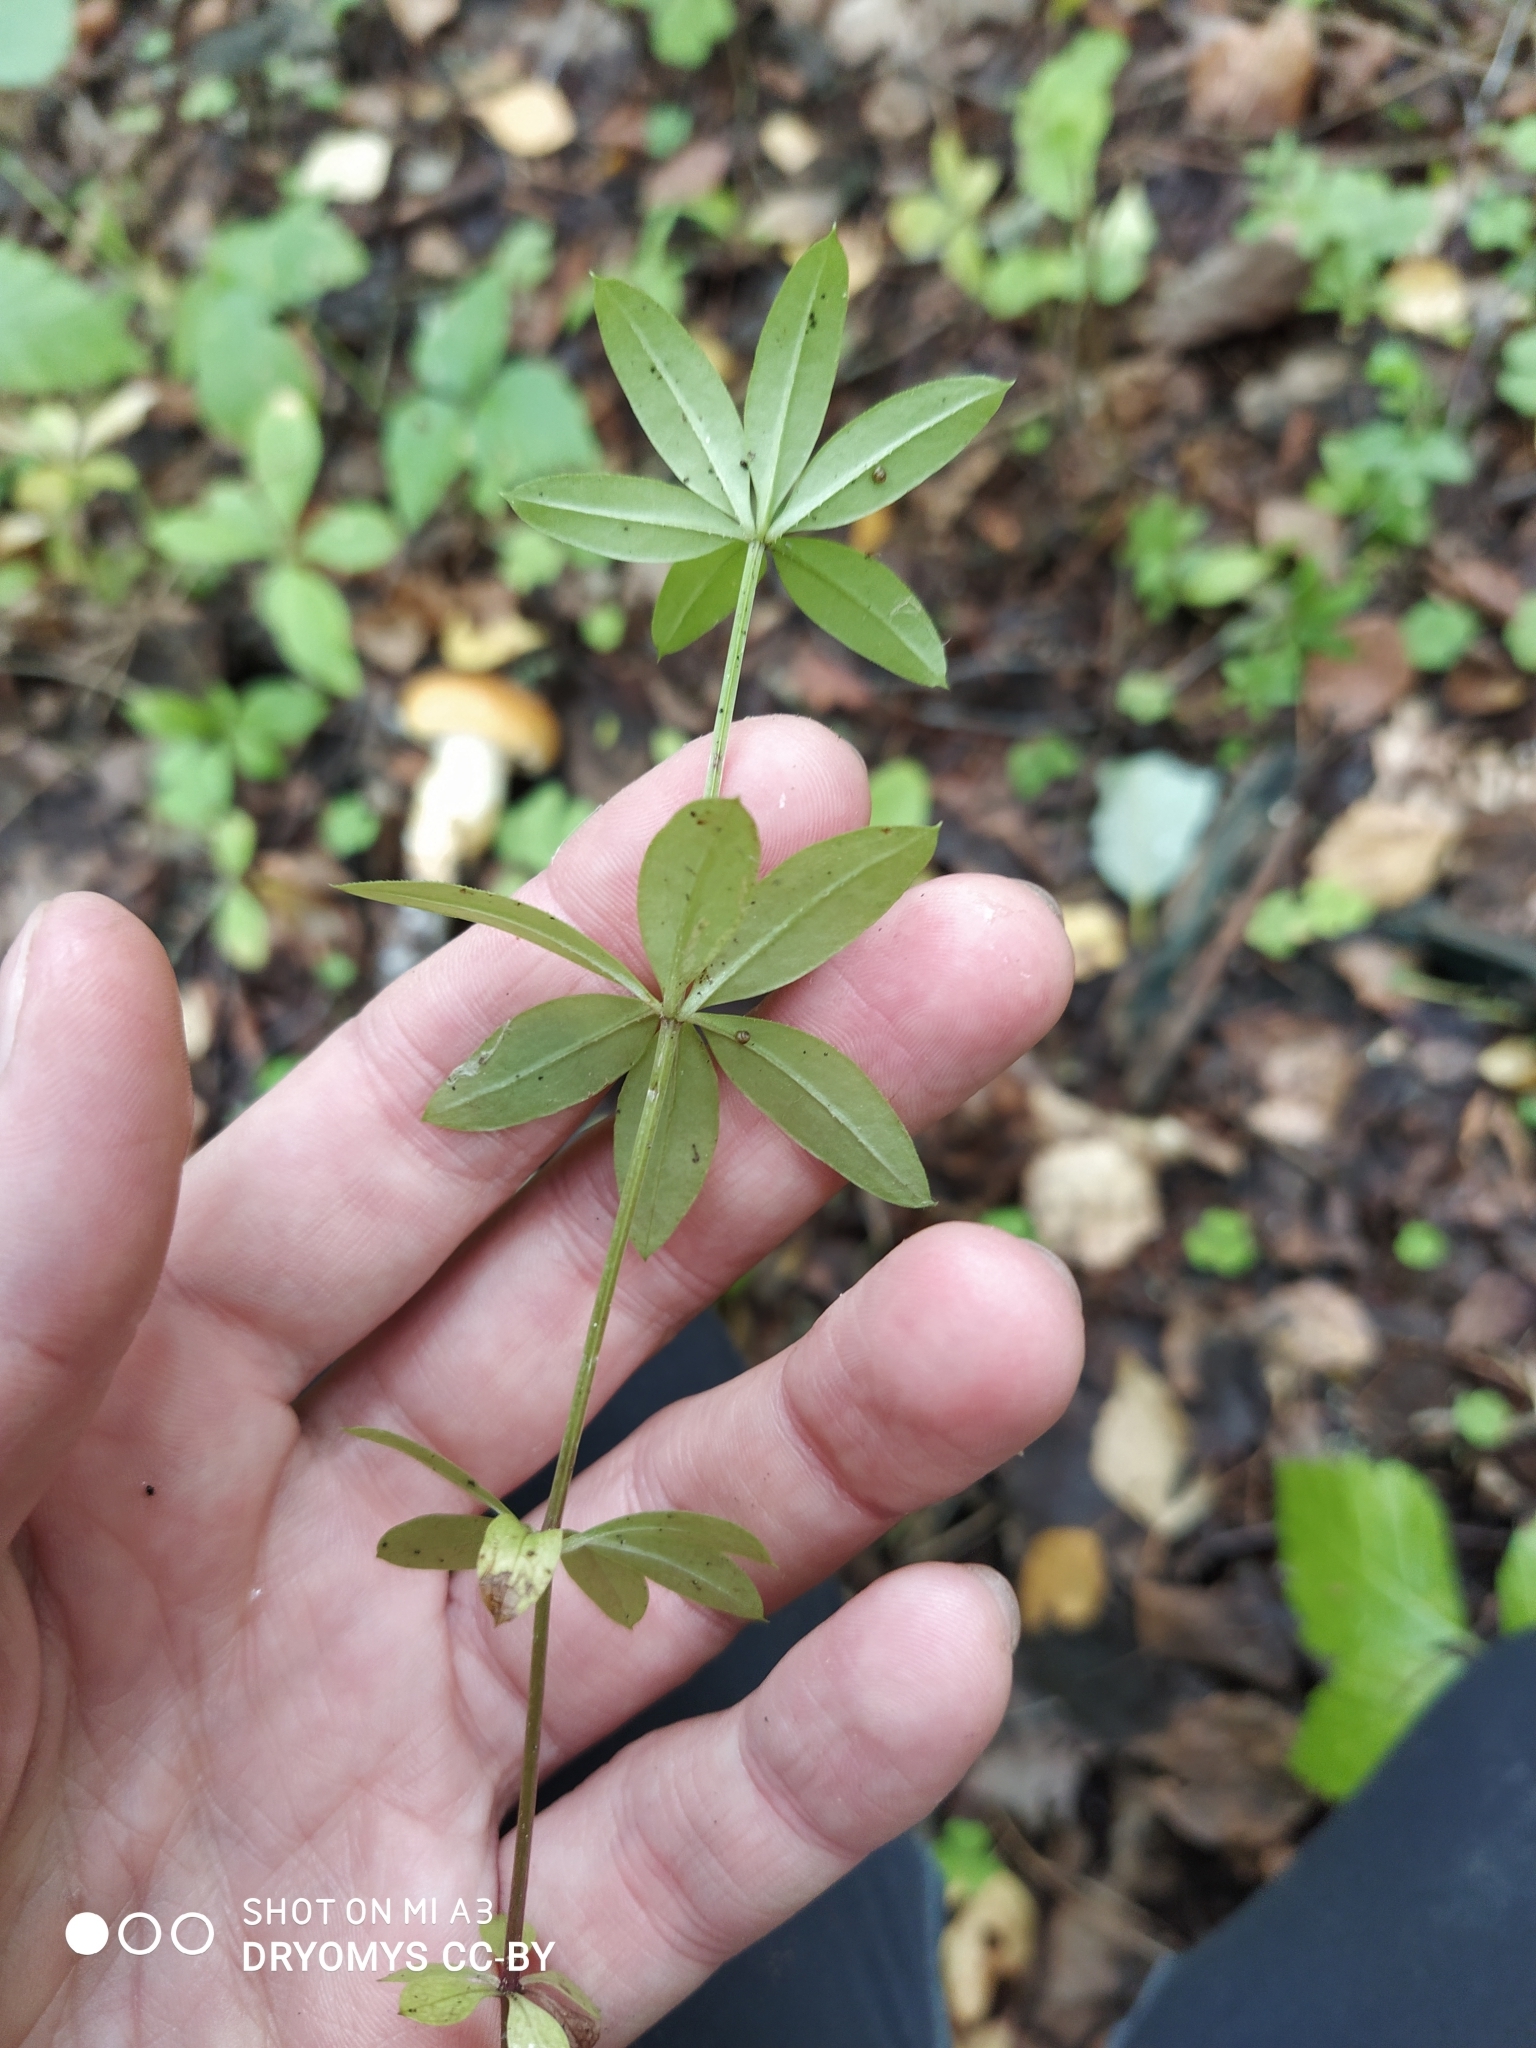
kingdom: Plantae
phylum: Tracheophyta
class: Magnoliopsida
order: Gentianales
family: Rubiaceae
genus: Galium
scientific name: Galium triflorum
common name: Fragrant bedstraw
